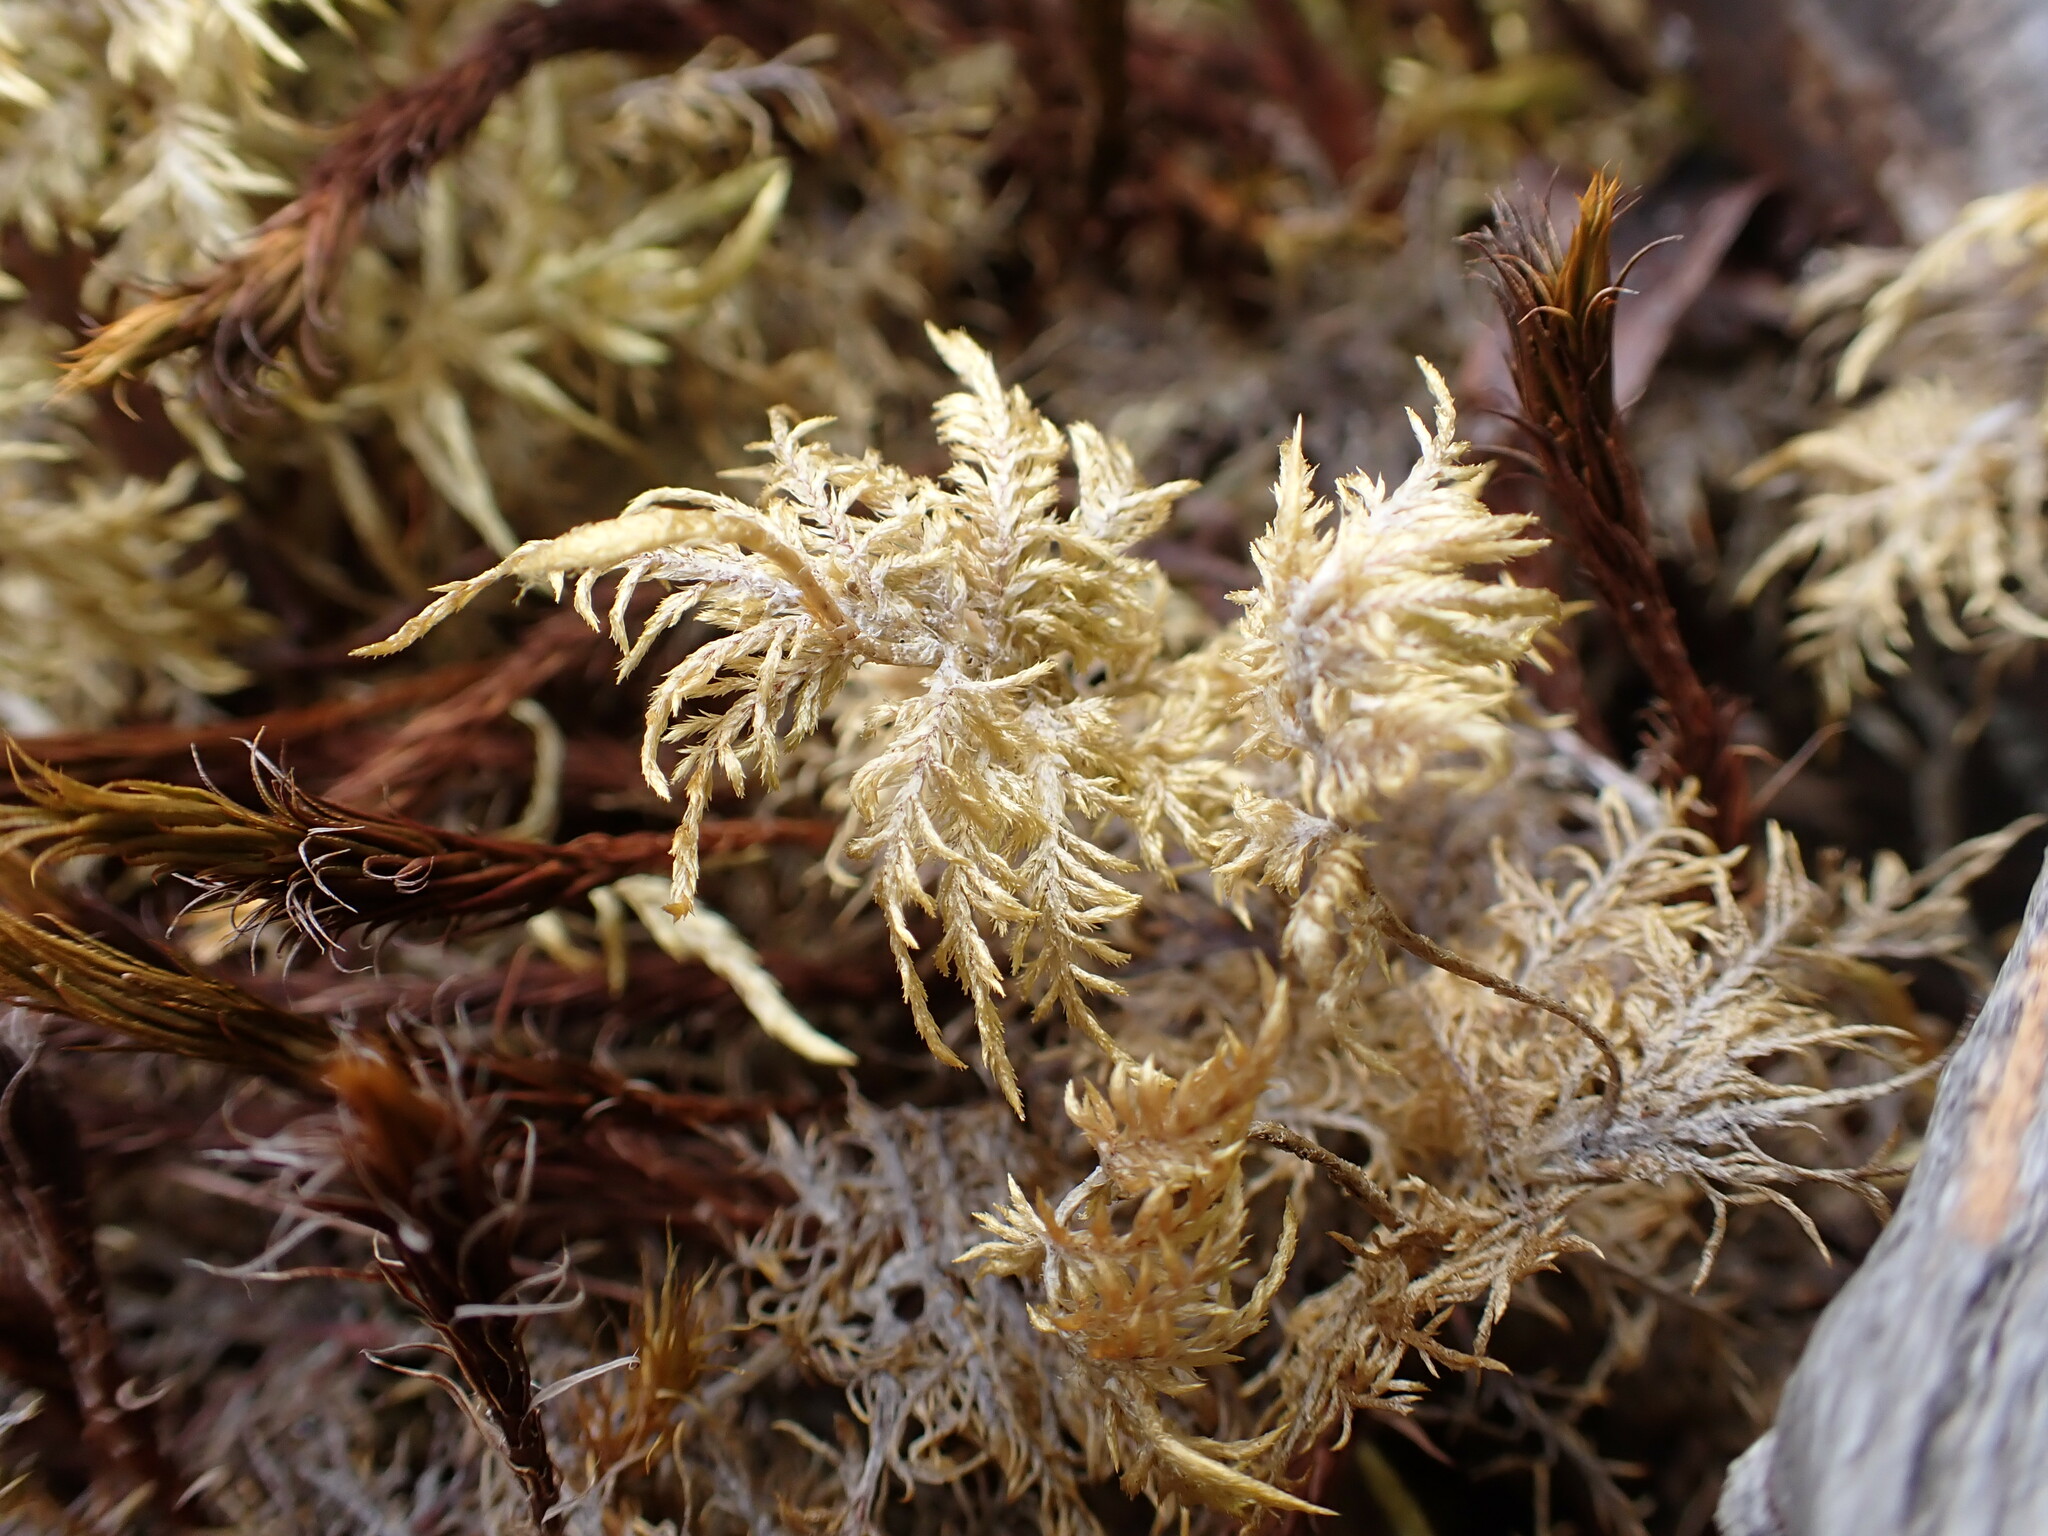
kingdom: Plantae
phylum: Bryophyta
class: Bryopsida
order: Hypnales
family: Hylocomiaceae
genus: Hylocomium
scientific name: Hylocomium splendens
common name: Stairstep moss
